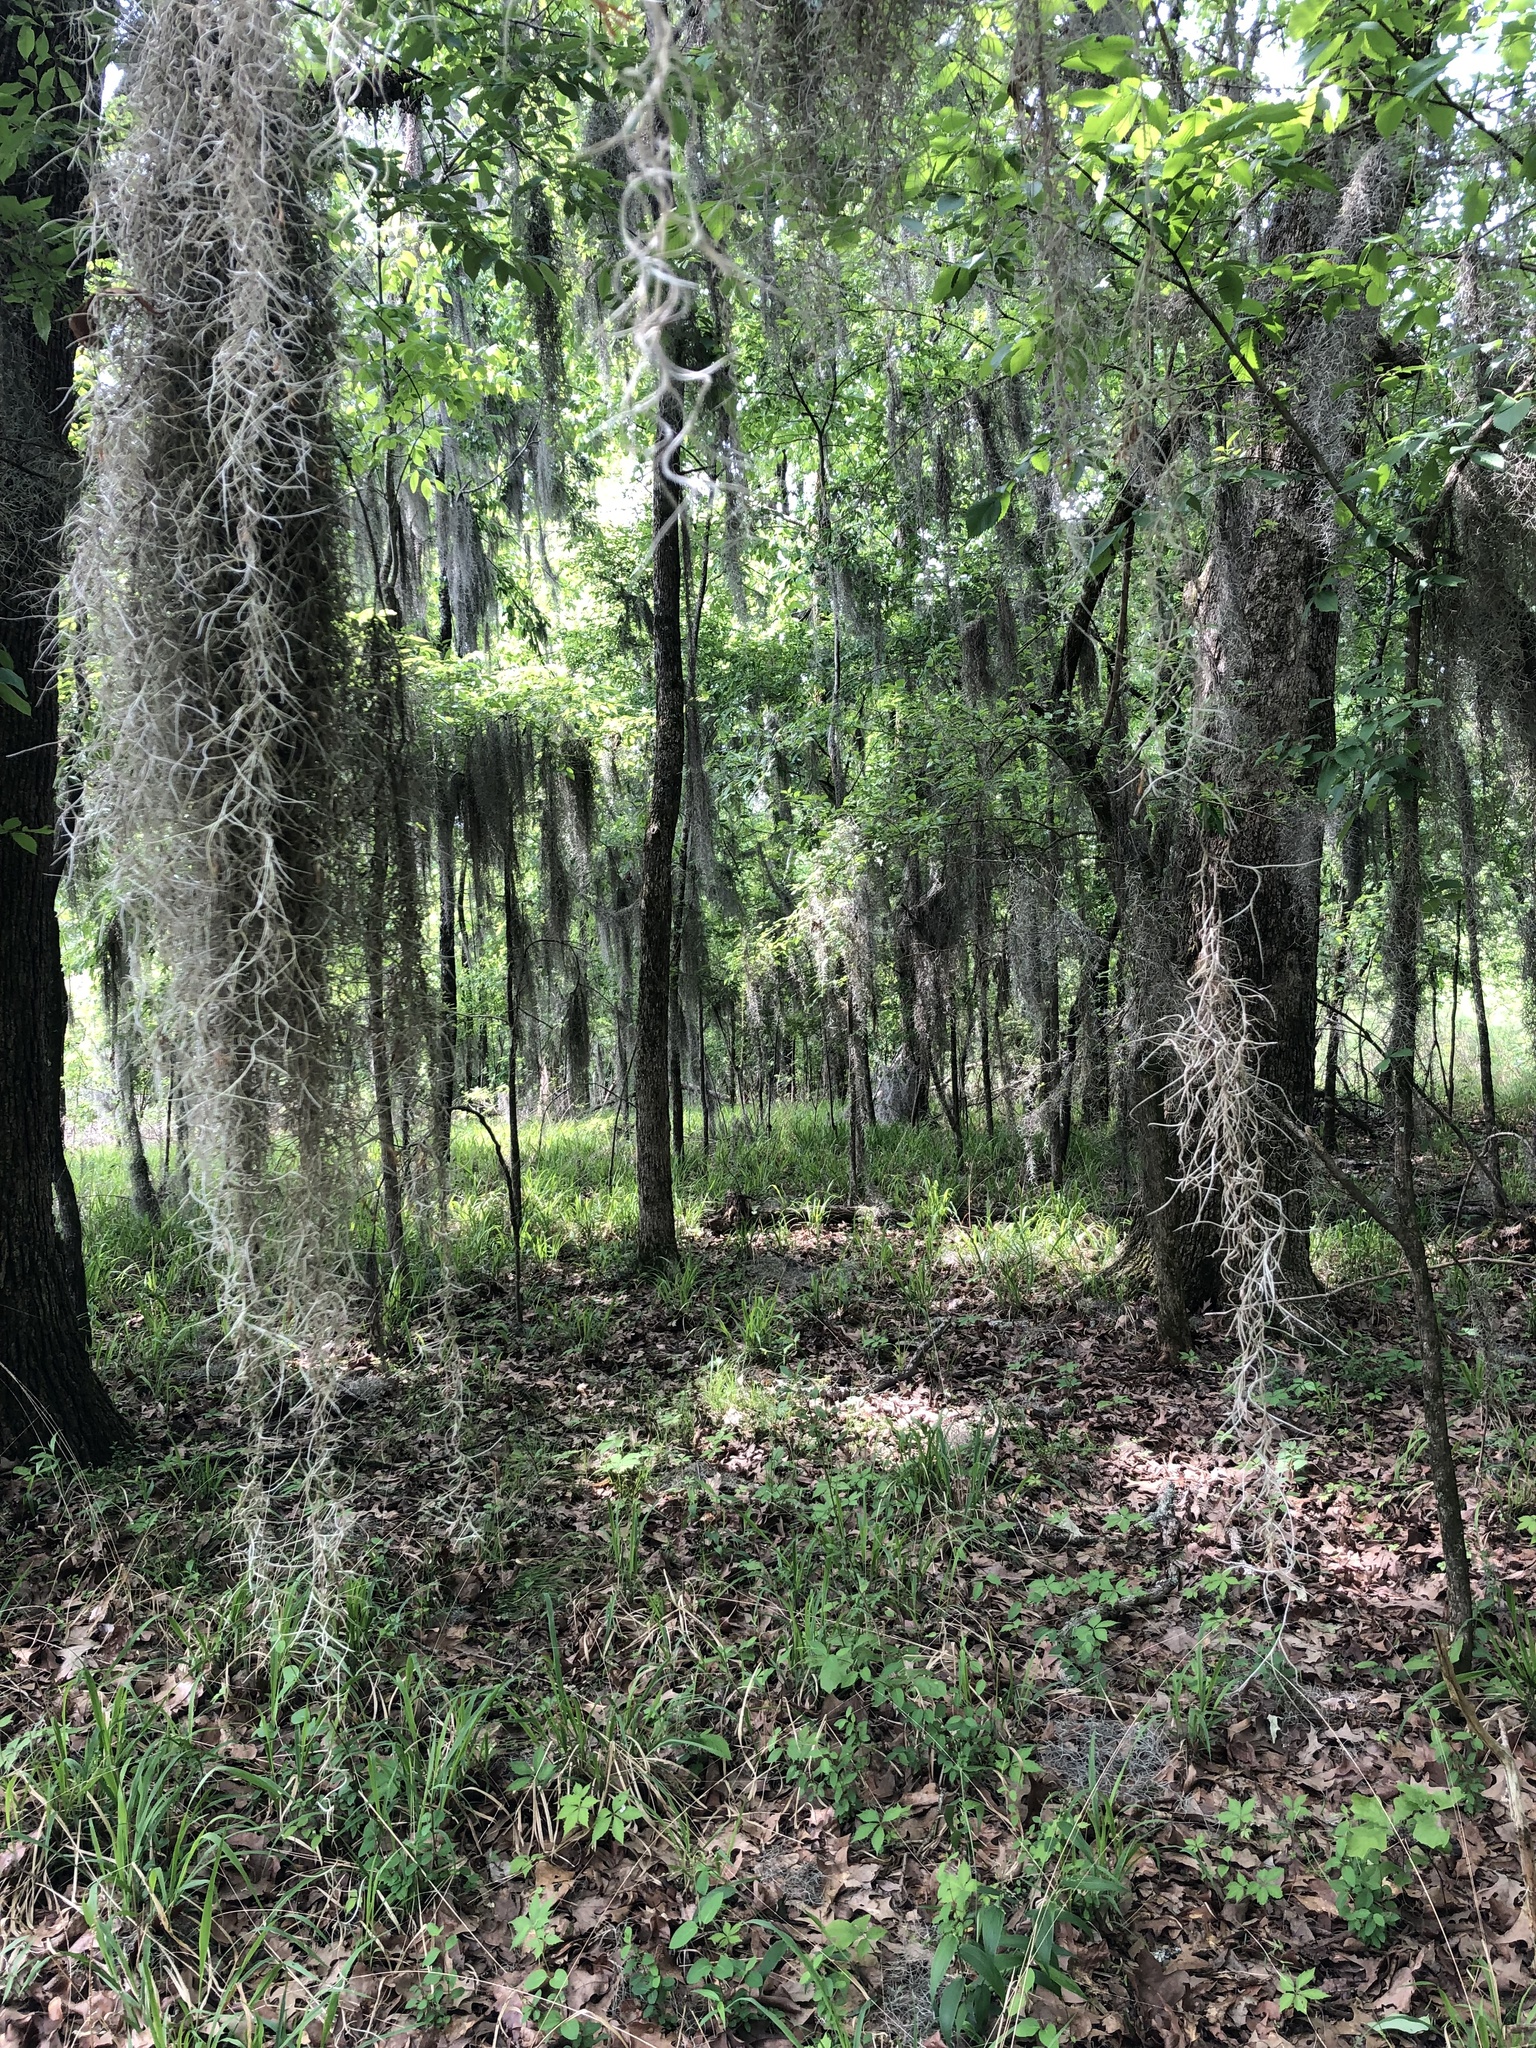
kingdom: Plantae
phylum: Tracheophyta
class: Liliopsida
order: Poales
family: Bromeliaceae
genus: Tillandsia
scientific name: Tillandsia usneoides
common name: Spanish moss
